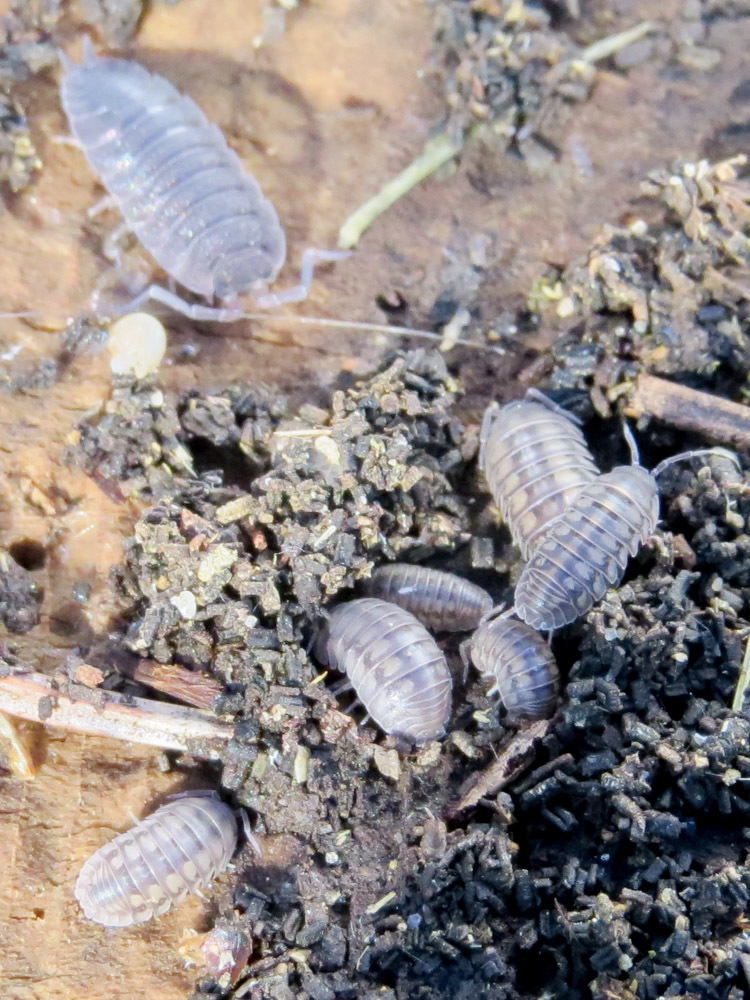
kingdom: Animalia
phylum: Arthropoda
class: Malacostraca
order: Isopoda
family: Armadillidiidae
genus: Armadillidium
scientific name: Armadillidium nasatum
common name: Isopod
